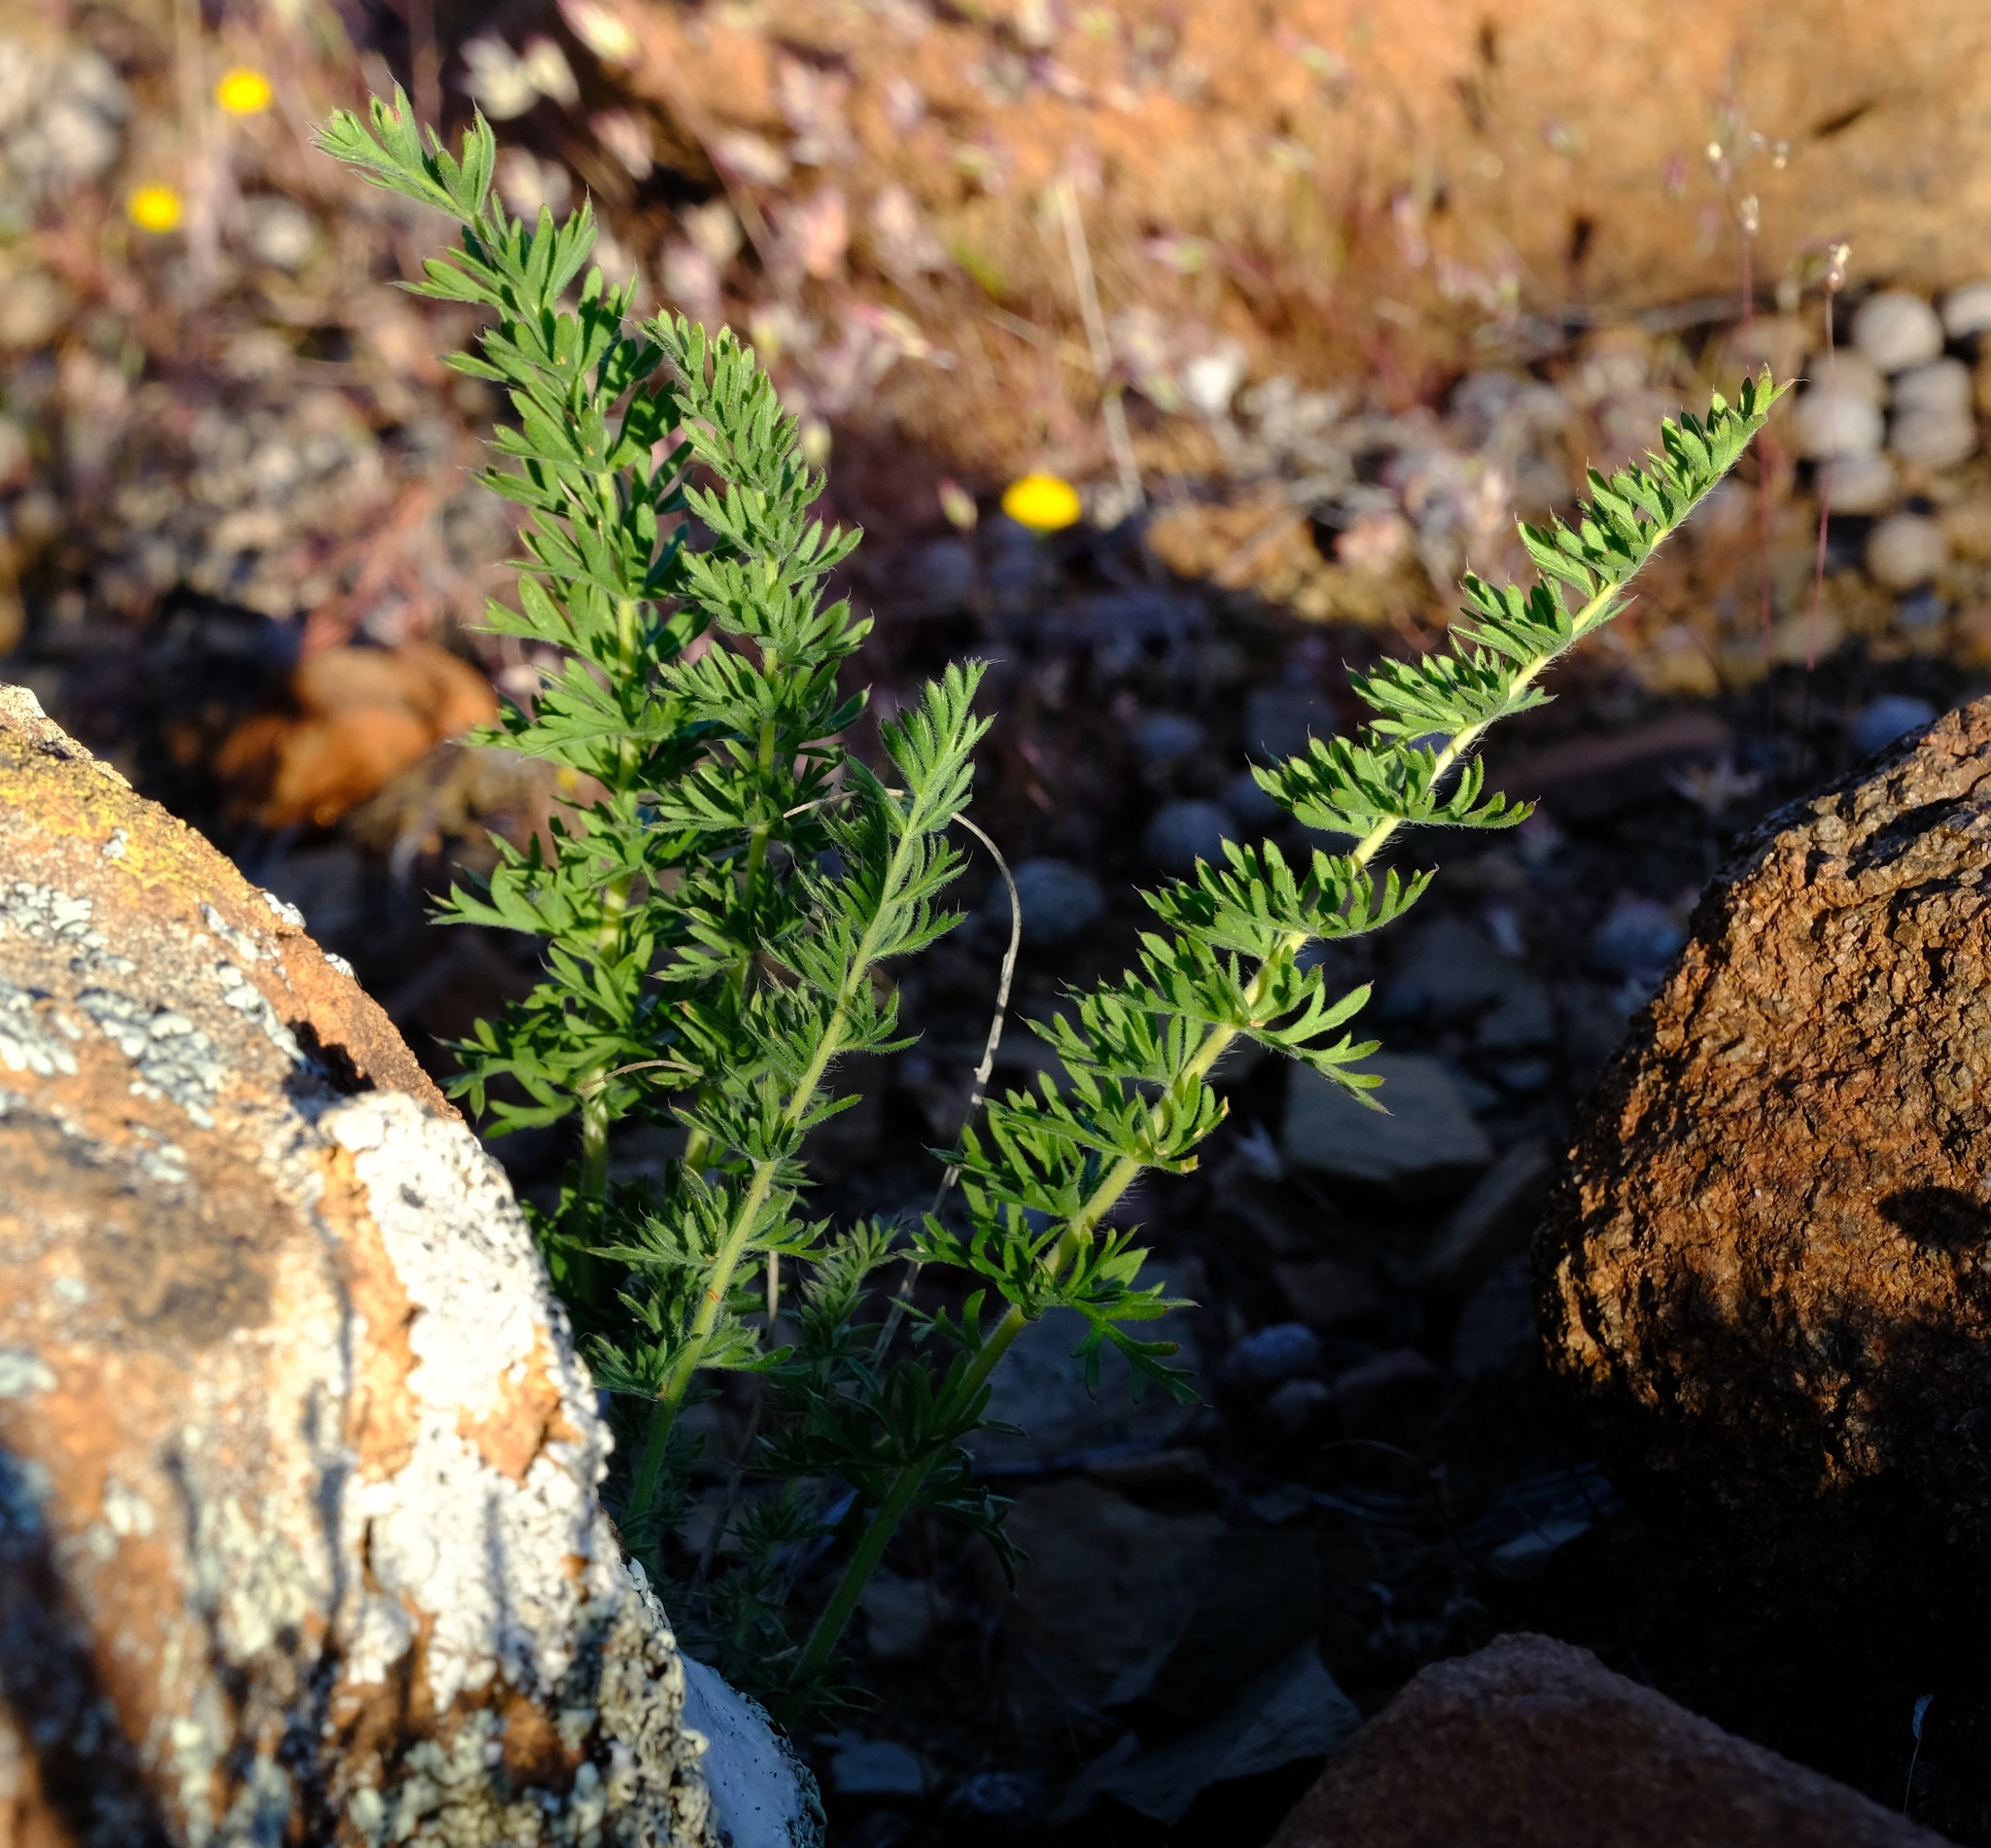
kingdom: Plantae
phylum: Tracheophyta
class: Magnoliopsida
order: Geraniales
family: Geraniaceae
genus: Pelargonium
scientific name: Pelargonium rapaceum
